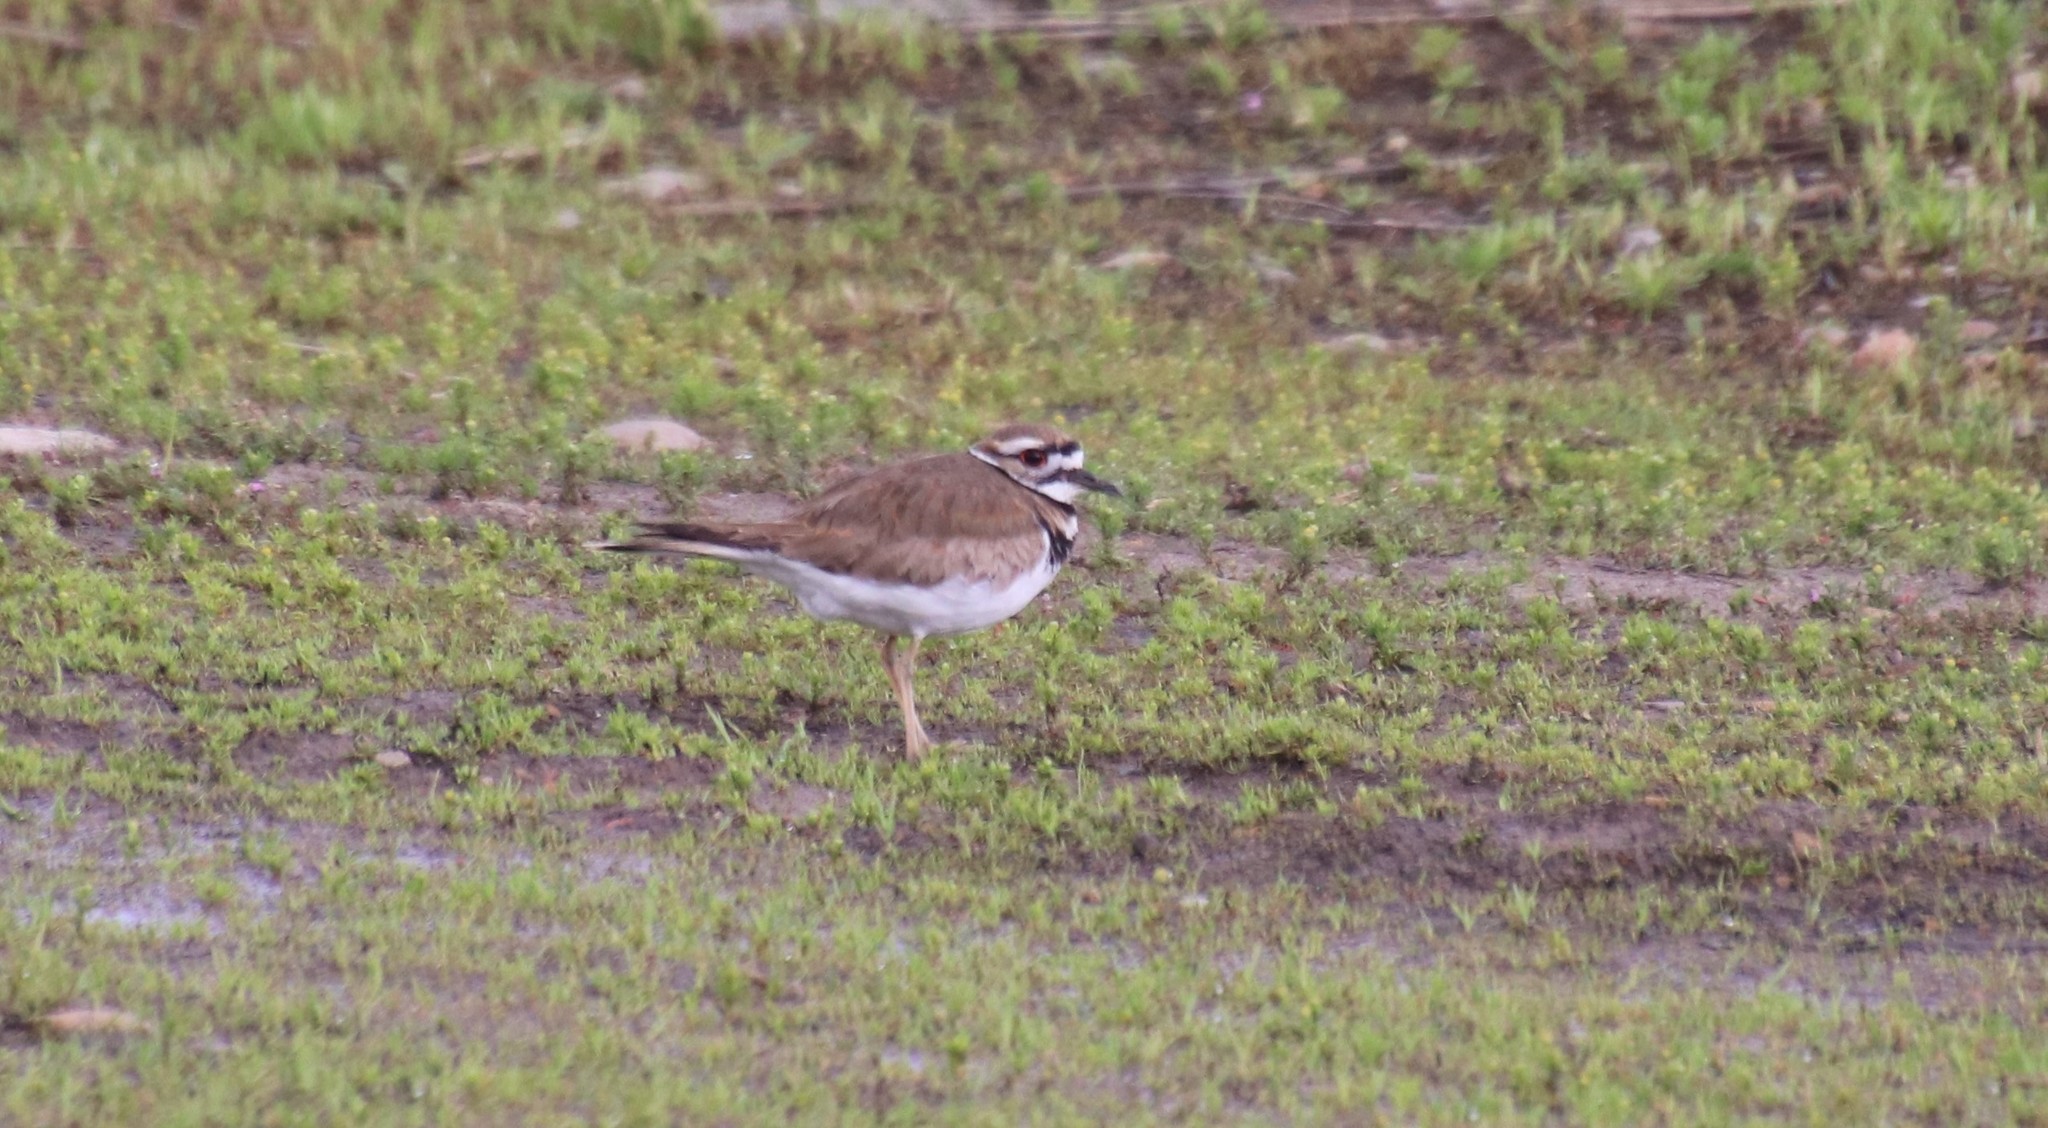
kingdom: Animalia
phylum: Chordata
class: Aves
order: Charadriiformes
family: Charadriidae
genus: Charadrius
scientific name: Charadrius vociferus
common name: Killdeer
